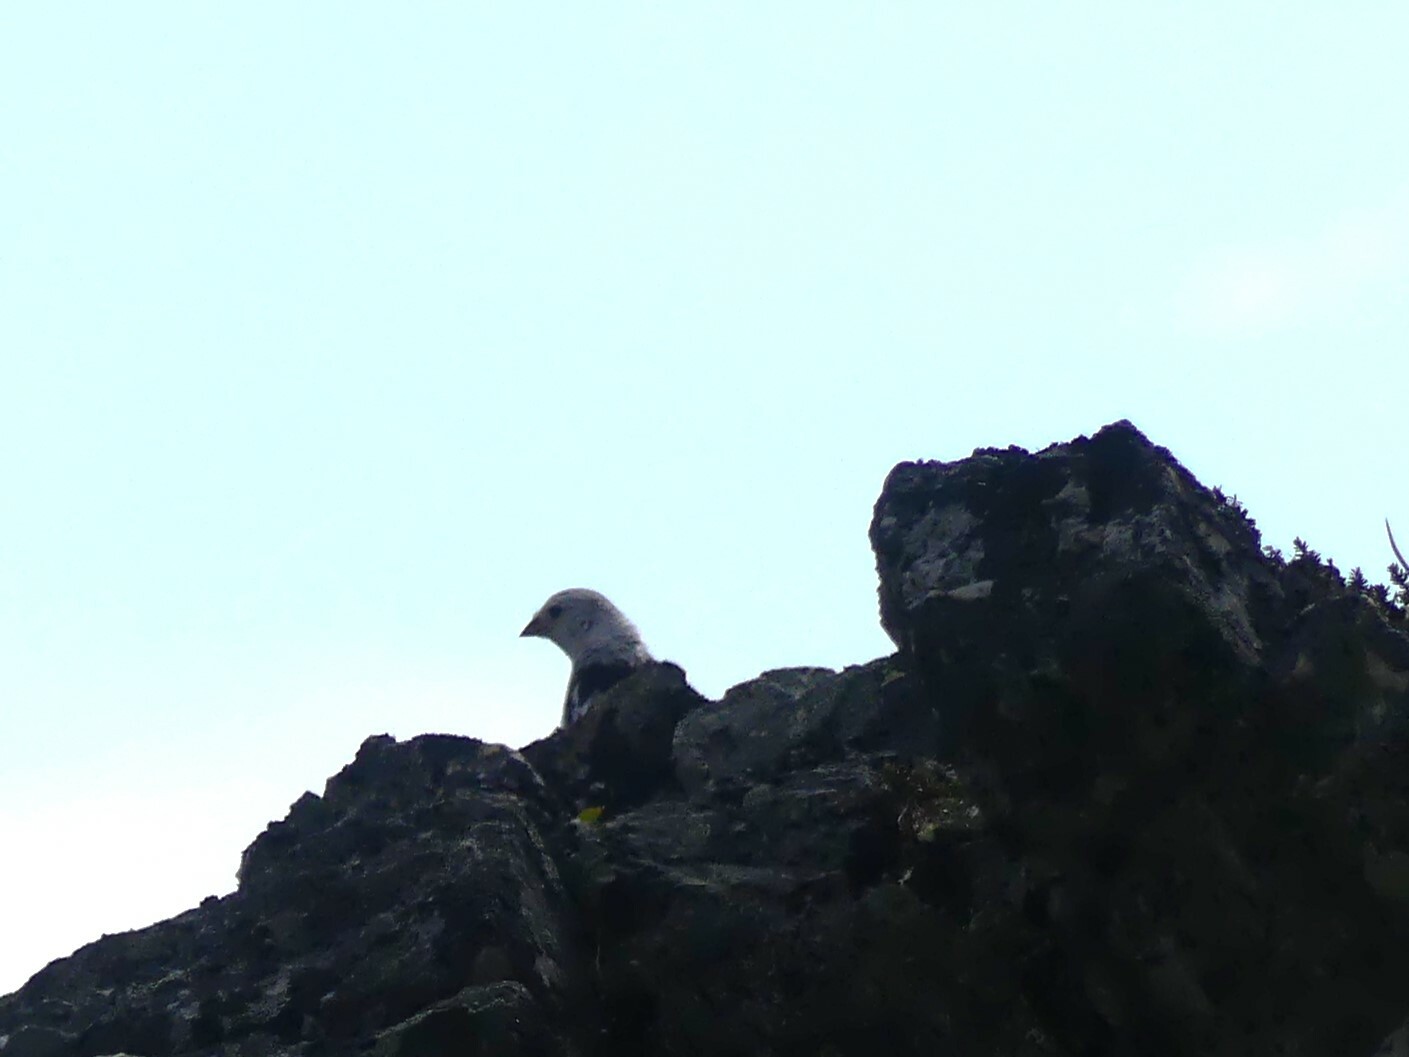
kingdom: Animalia
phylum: Chordata
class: Aves
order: Passeriformes
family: Calcariidae
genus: Plectrophenax
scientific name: Plectrophenax nivalis
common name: Snow bunting
